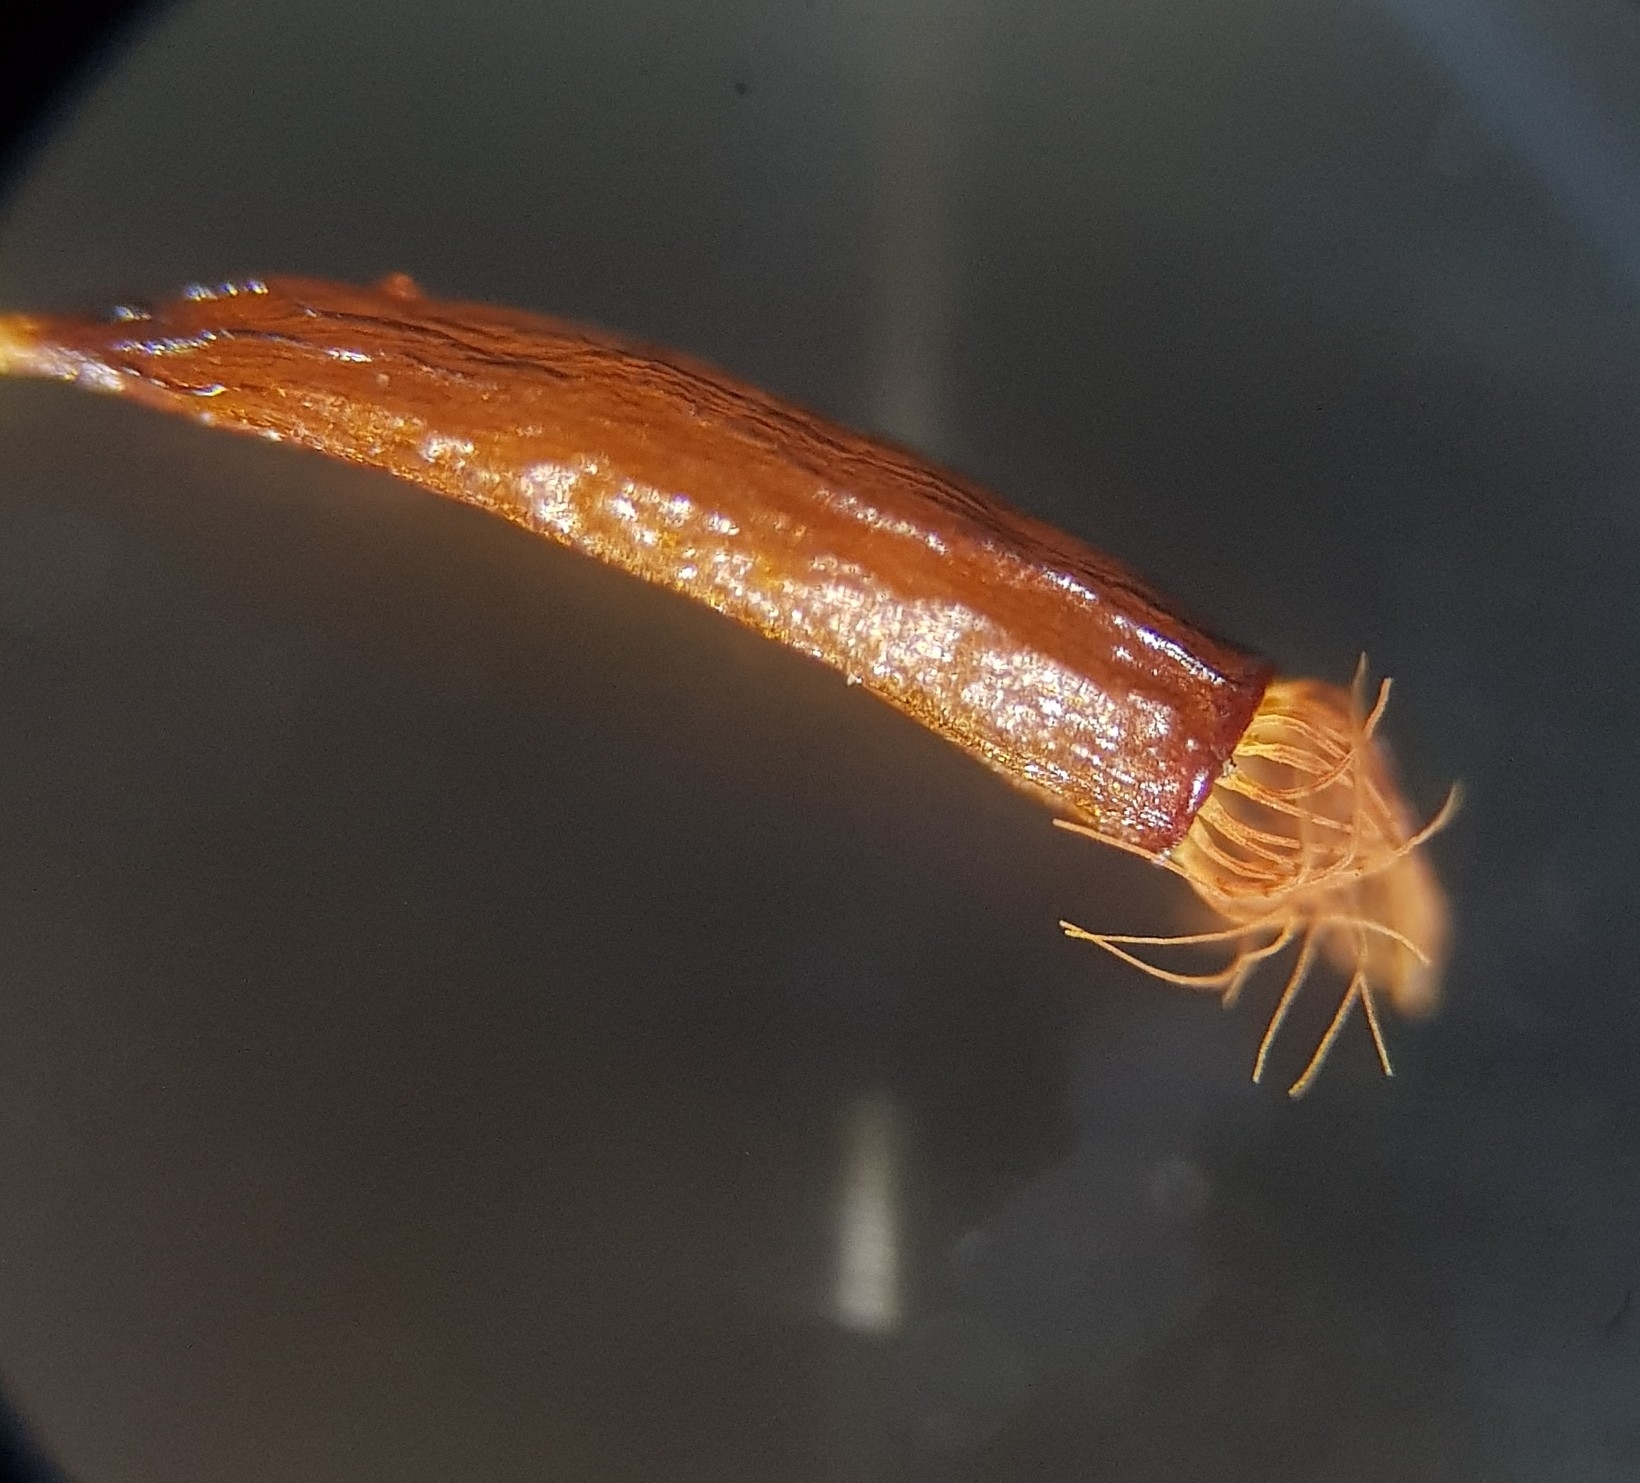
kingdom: Plantae
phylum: Bryophyta
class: Bryopsida
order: Pottiales
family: Pottiaceae
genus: Aloina
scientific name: Aloina aloides
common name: Common aloe-moss
